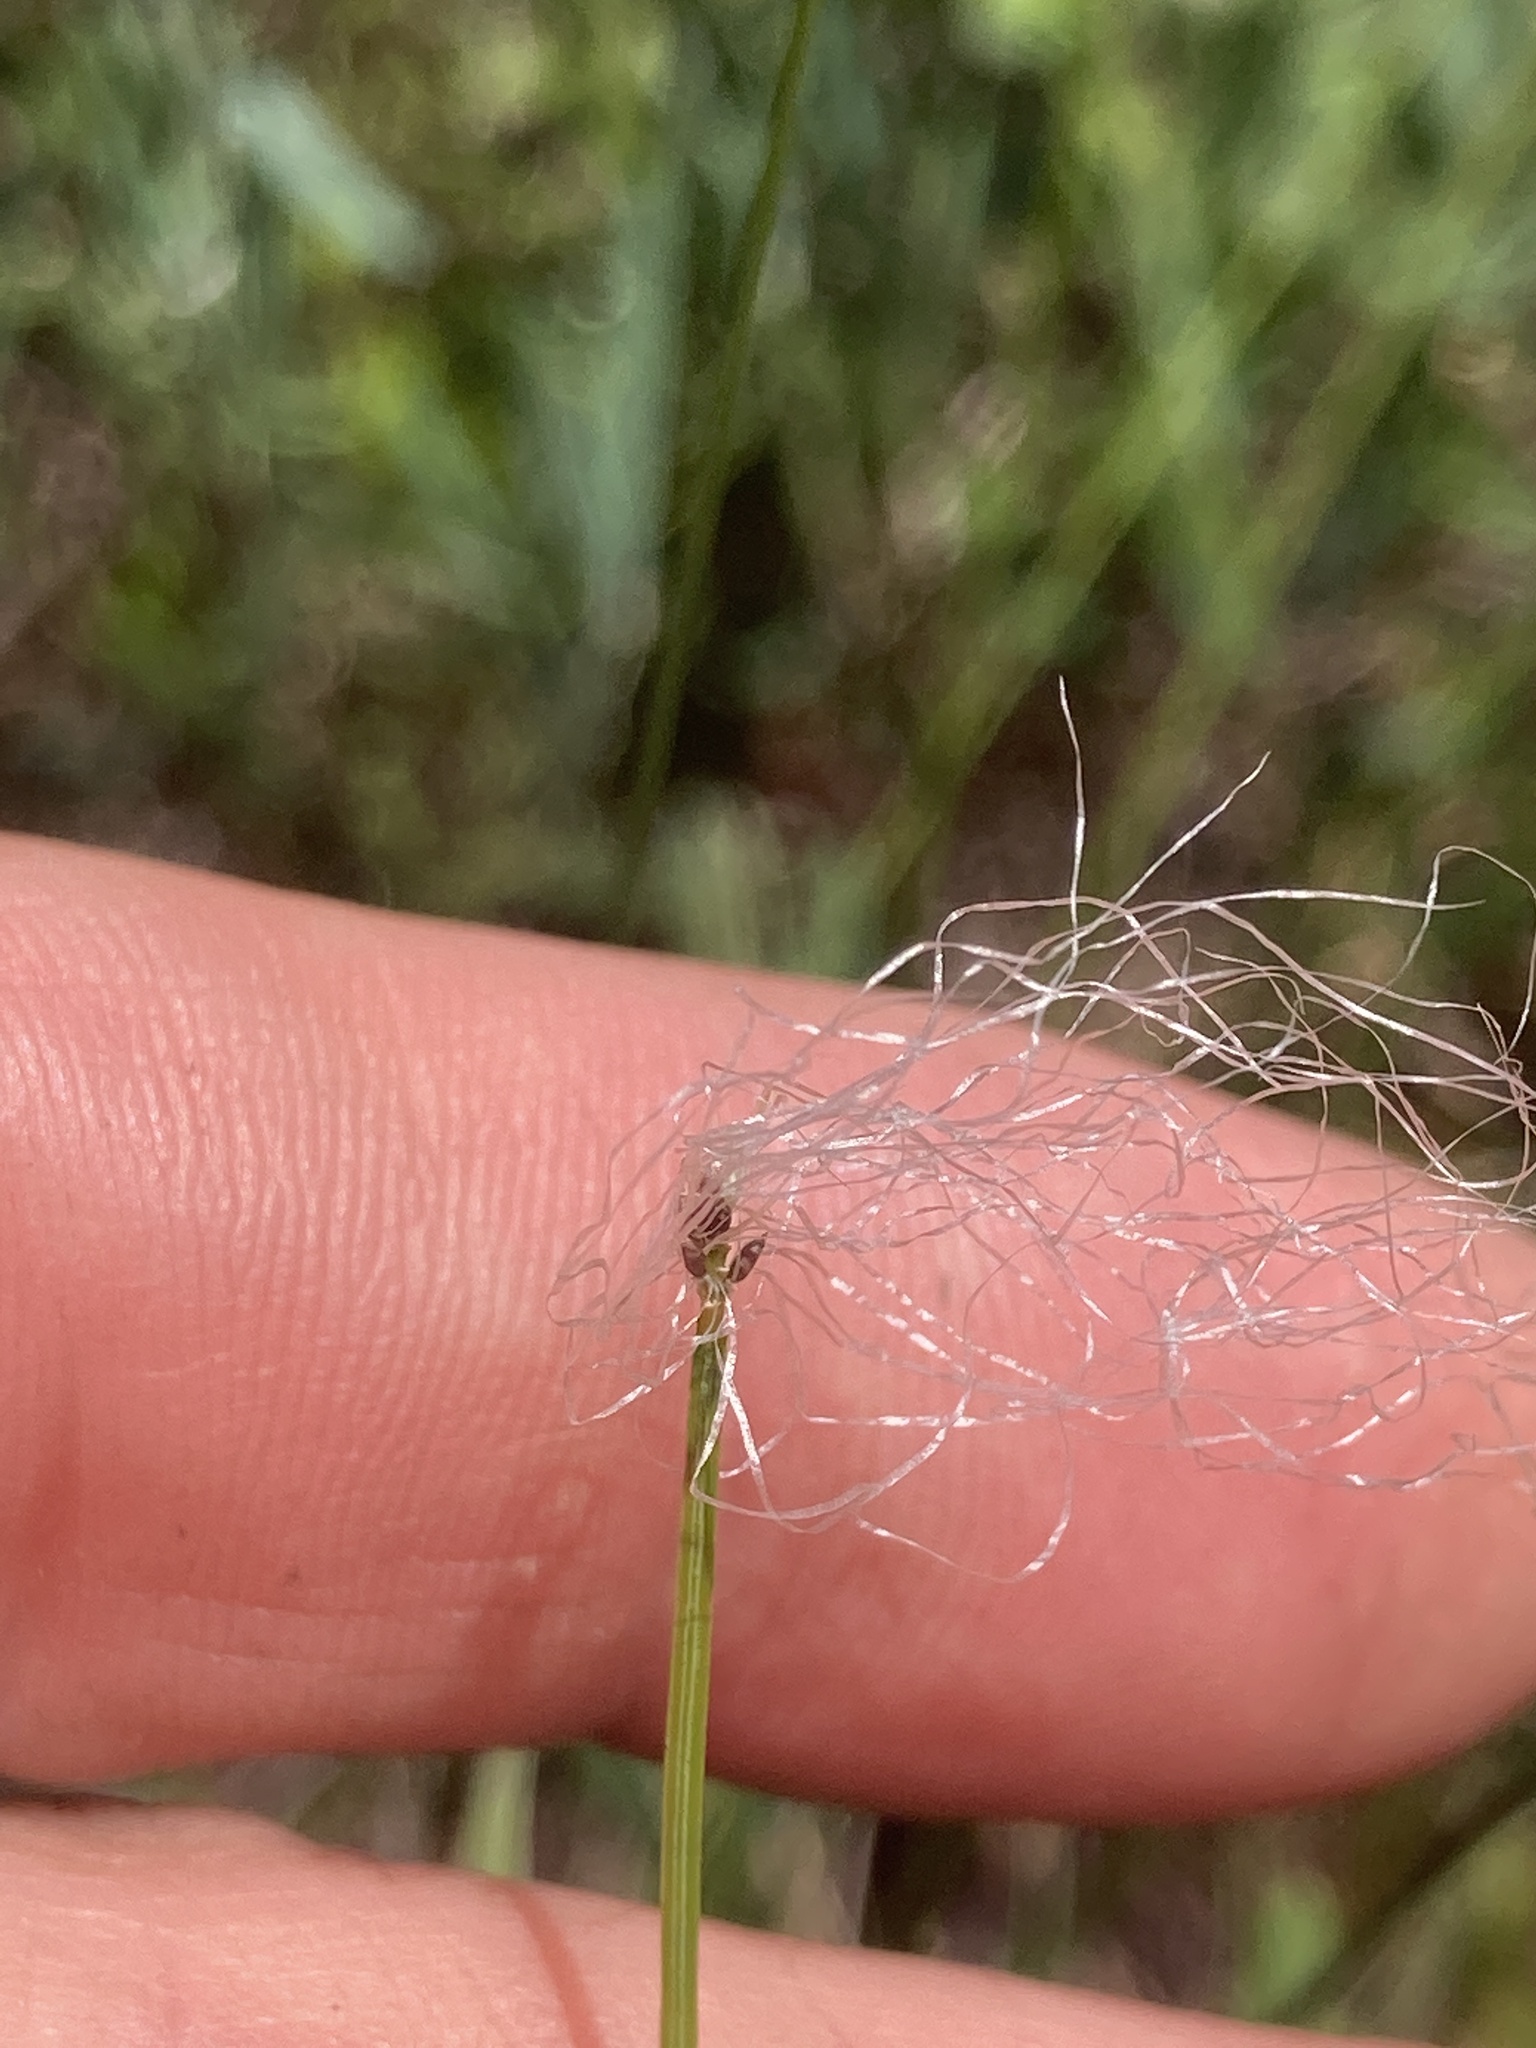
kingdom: Plantae
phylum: Tracheophyta
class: Liliopsida
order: Poales
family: Cyperaceae
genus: Trichophorum
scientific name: Trichophorum alpinum
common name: Alpine bulrush
